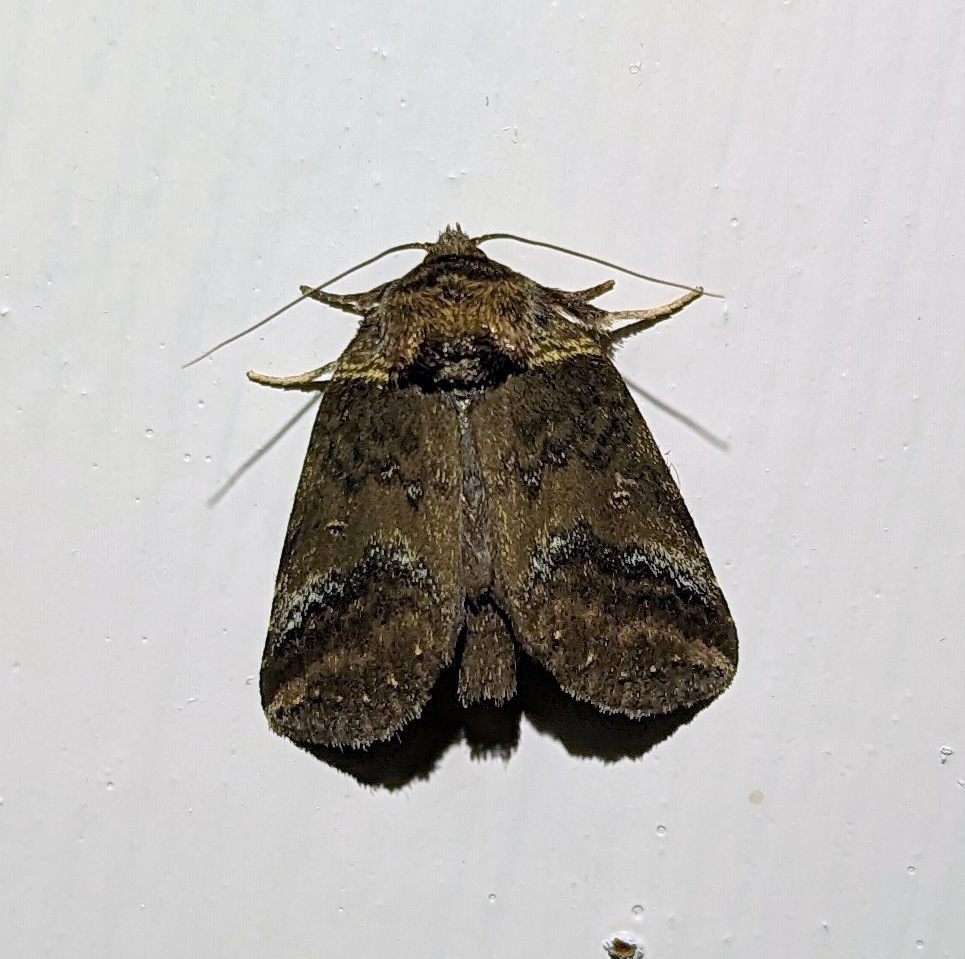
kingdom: Animalia
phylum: Arthropoda
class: Insecta
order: Lepidoptera
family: Notodontidae
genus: Phastia
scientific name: Phastia alcimede
